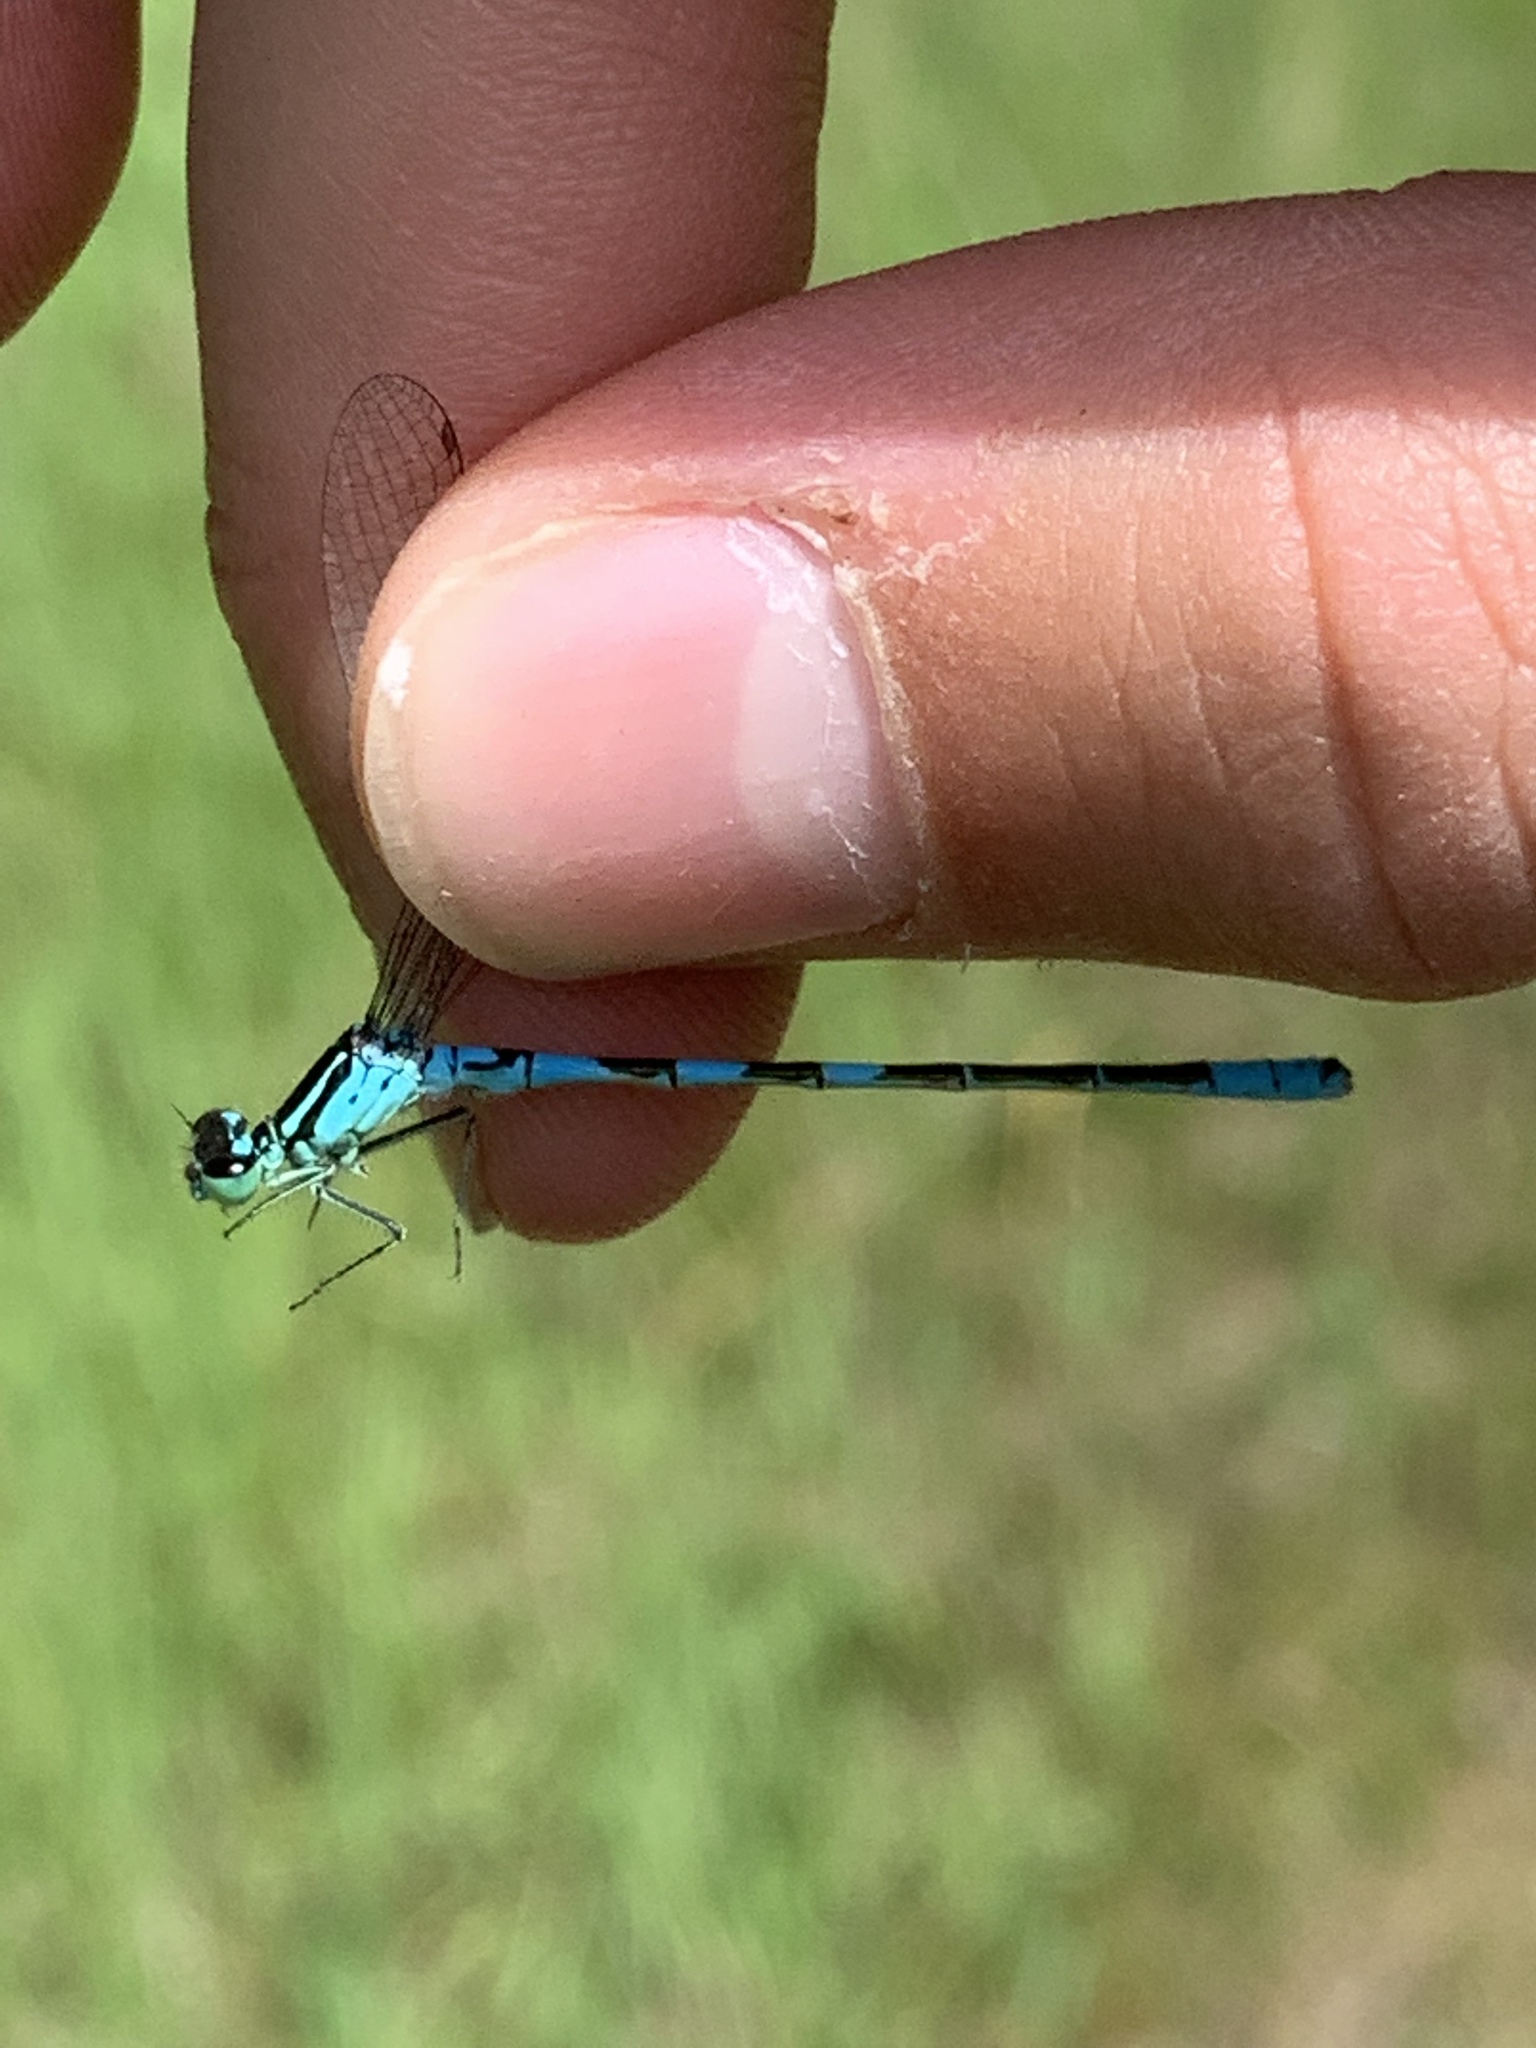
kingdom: Animalia
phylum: Arthropoda
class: Insecta
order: Odonata
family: Coenagrionidae
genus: Coenagrion
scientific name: Coenagrion resolutum
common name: Taiga bluet
